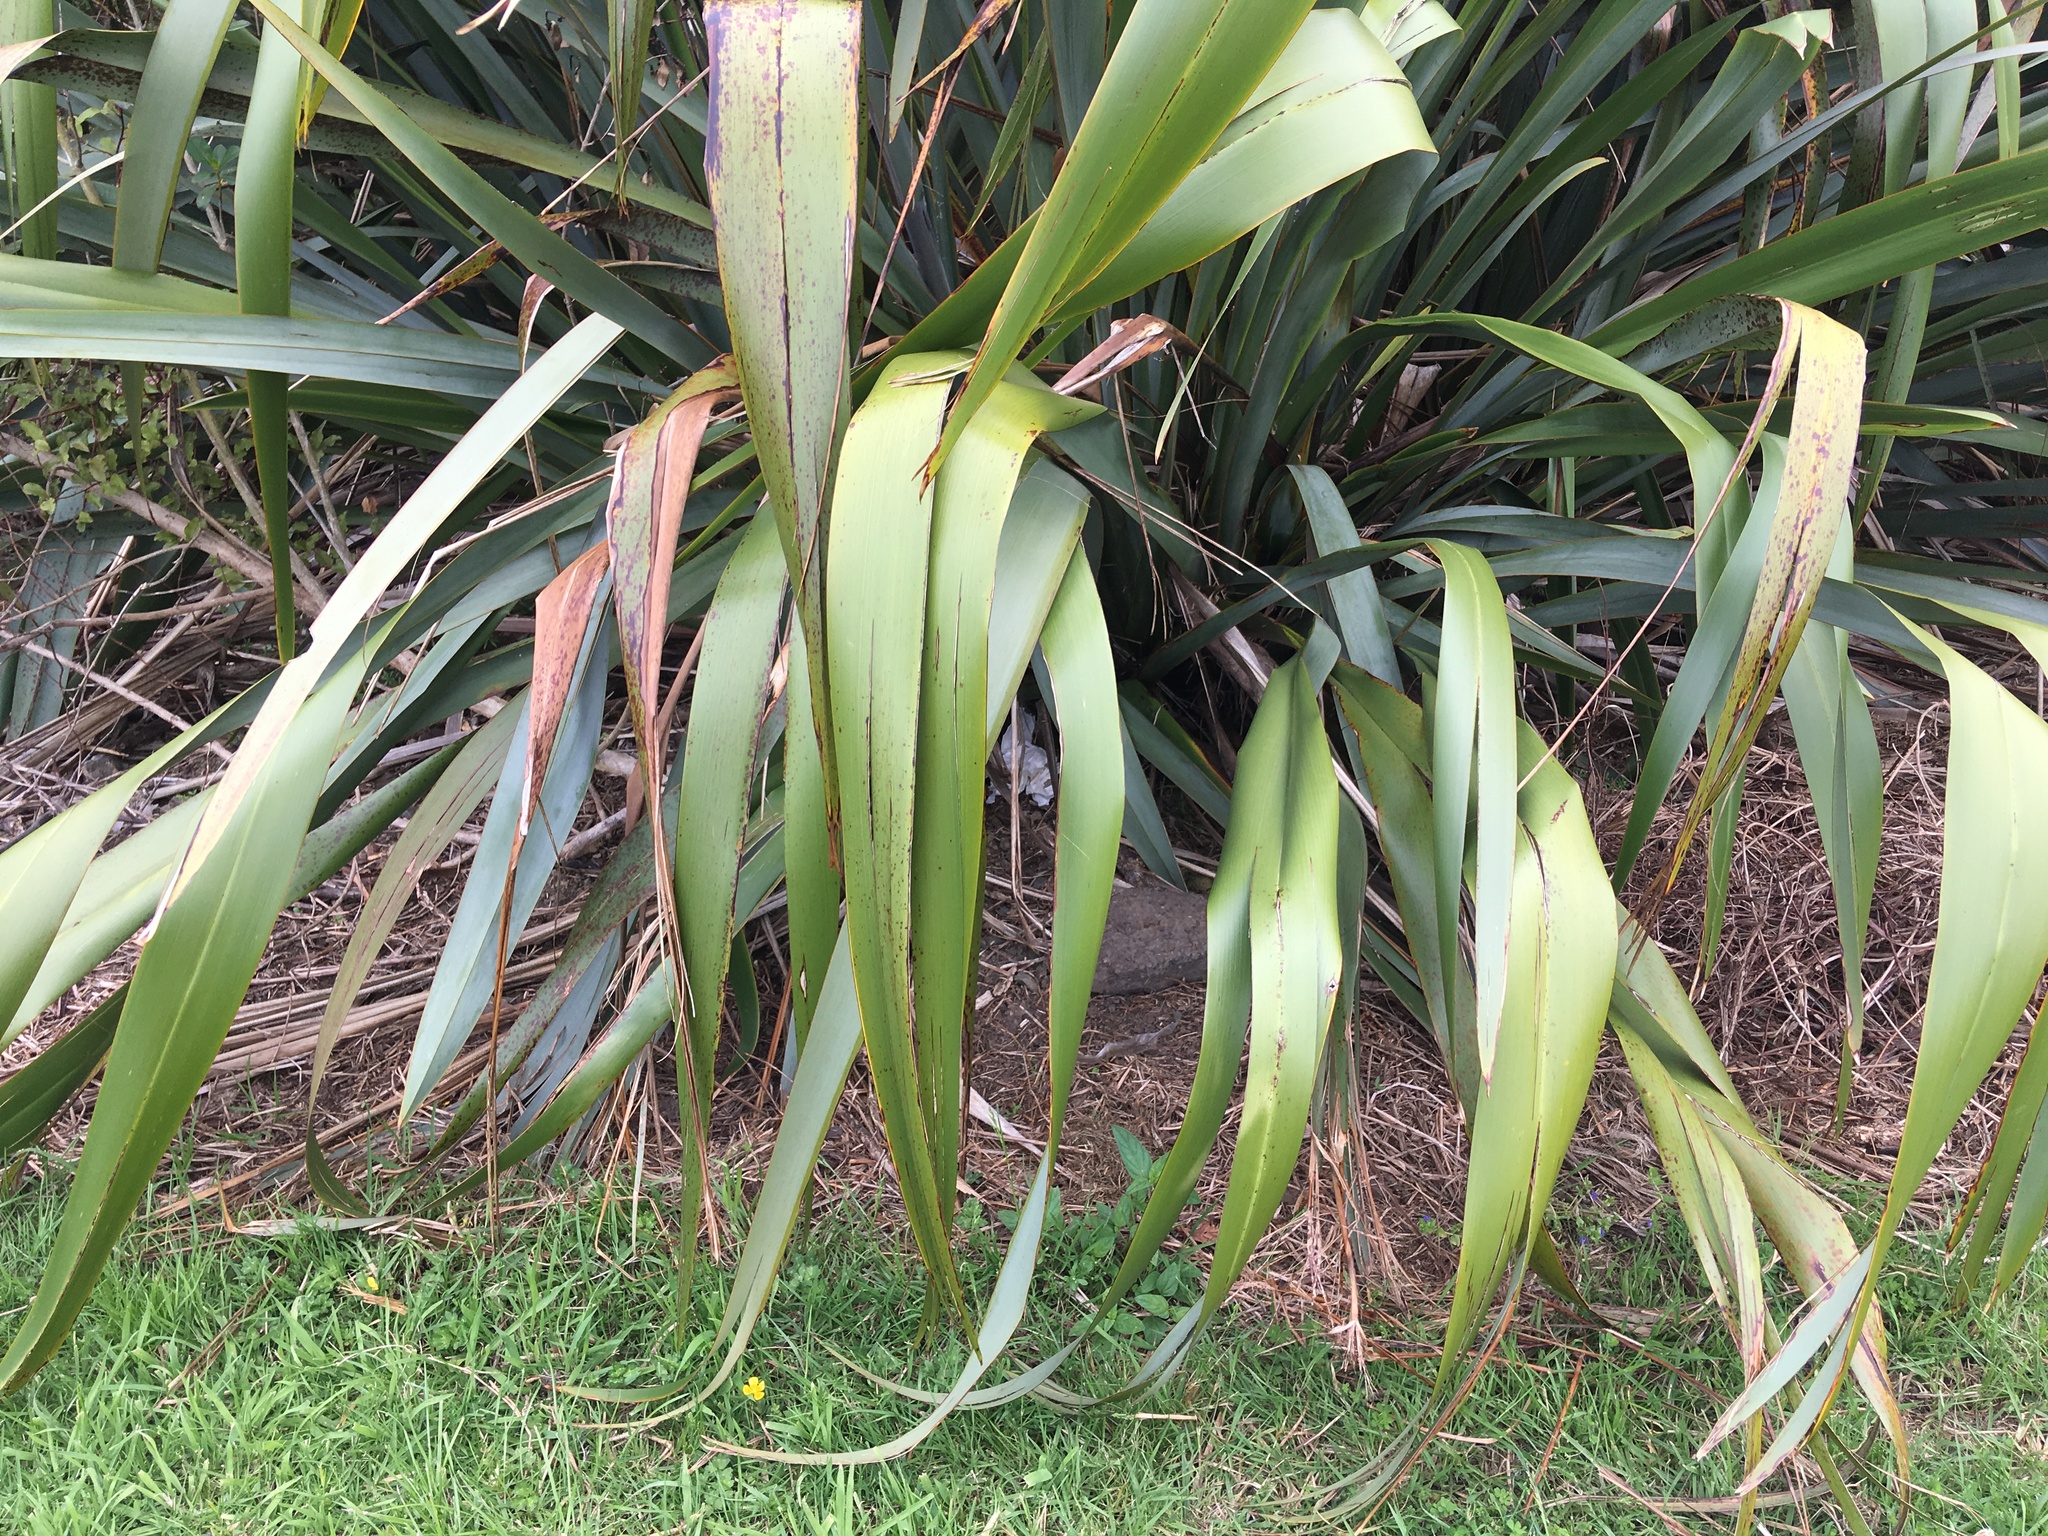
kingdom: Plantae
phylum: Tracheophyta
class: Magnoliopsida
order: Gentianales
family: Rubiaceae
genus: Coprosma
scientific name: Coprosma robusta
